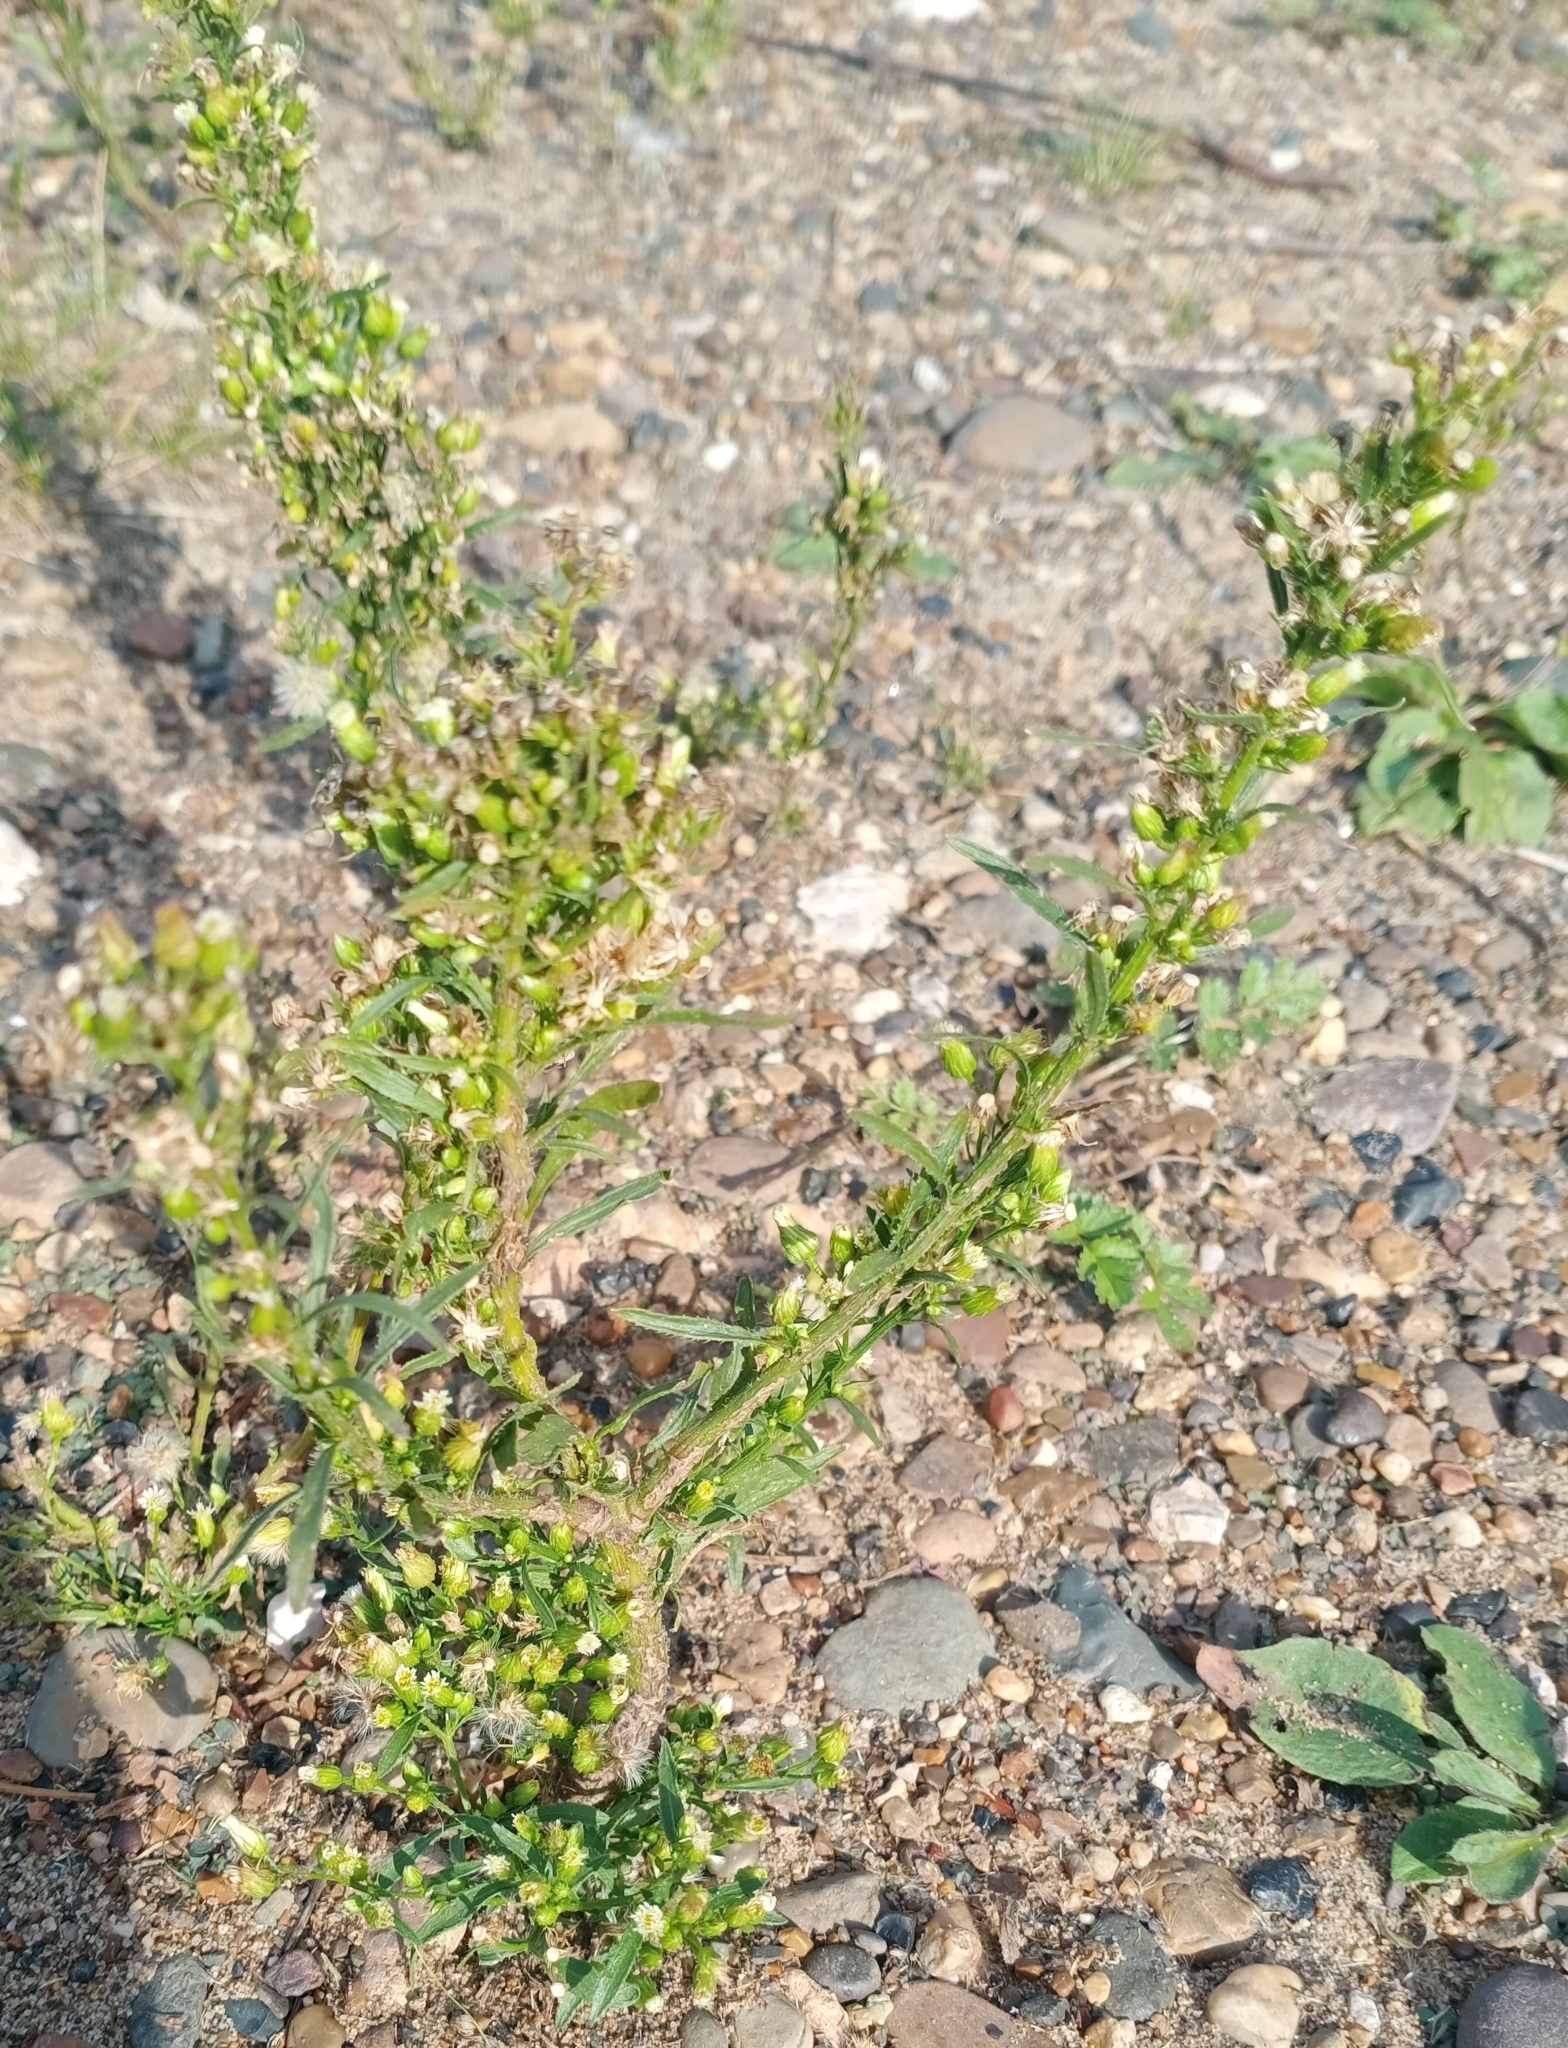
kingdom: Plantae
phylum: Tracheophyta
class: Magnoliopsida
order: Asterales
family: Asteraceae
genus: Erigeron
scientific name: Erigeron canadensis
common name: Canadian fleabane
